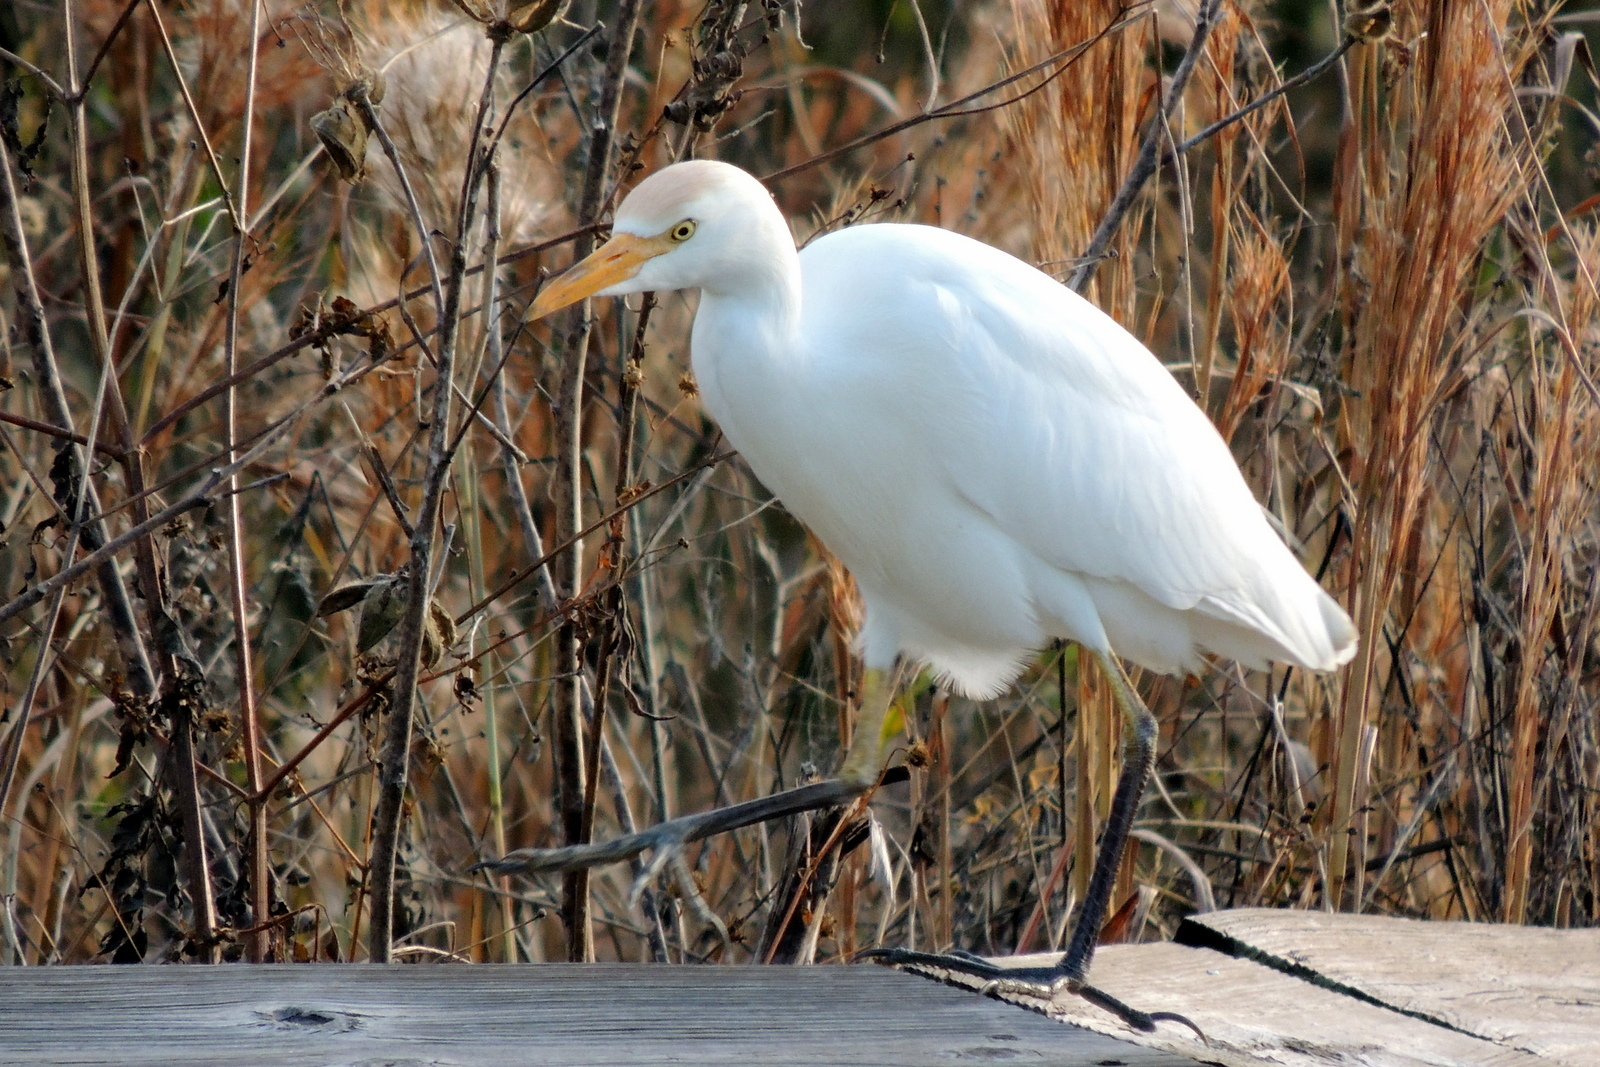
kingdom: Animalia
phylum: Chordata
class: Aves
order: Pelecaniformes
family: Ardeidae
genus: Bubulcus
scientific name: Bubulcus ibis
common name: Cattle egret
